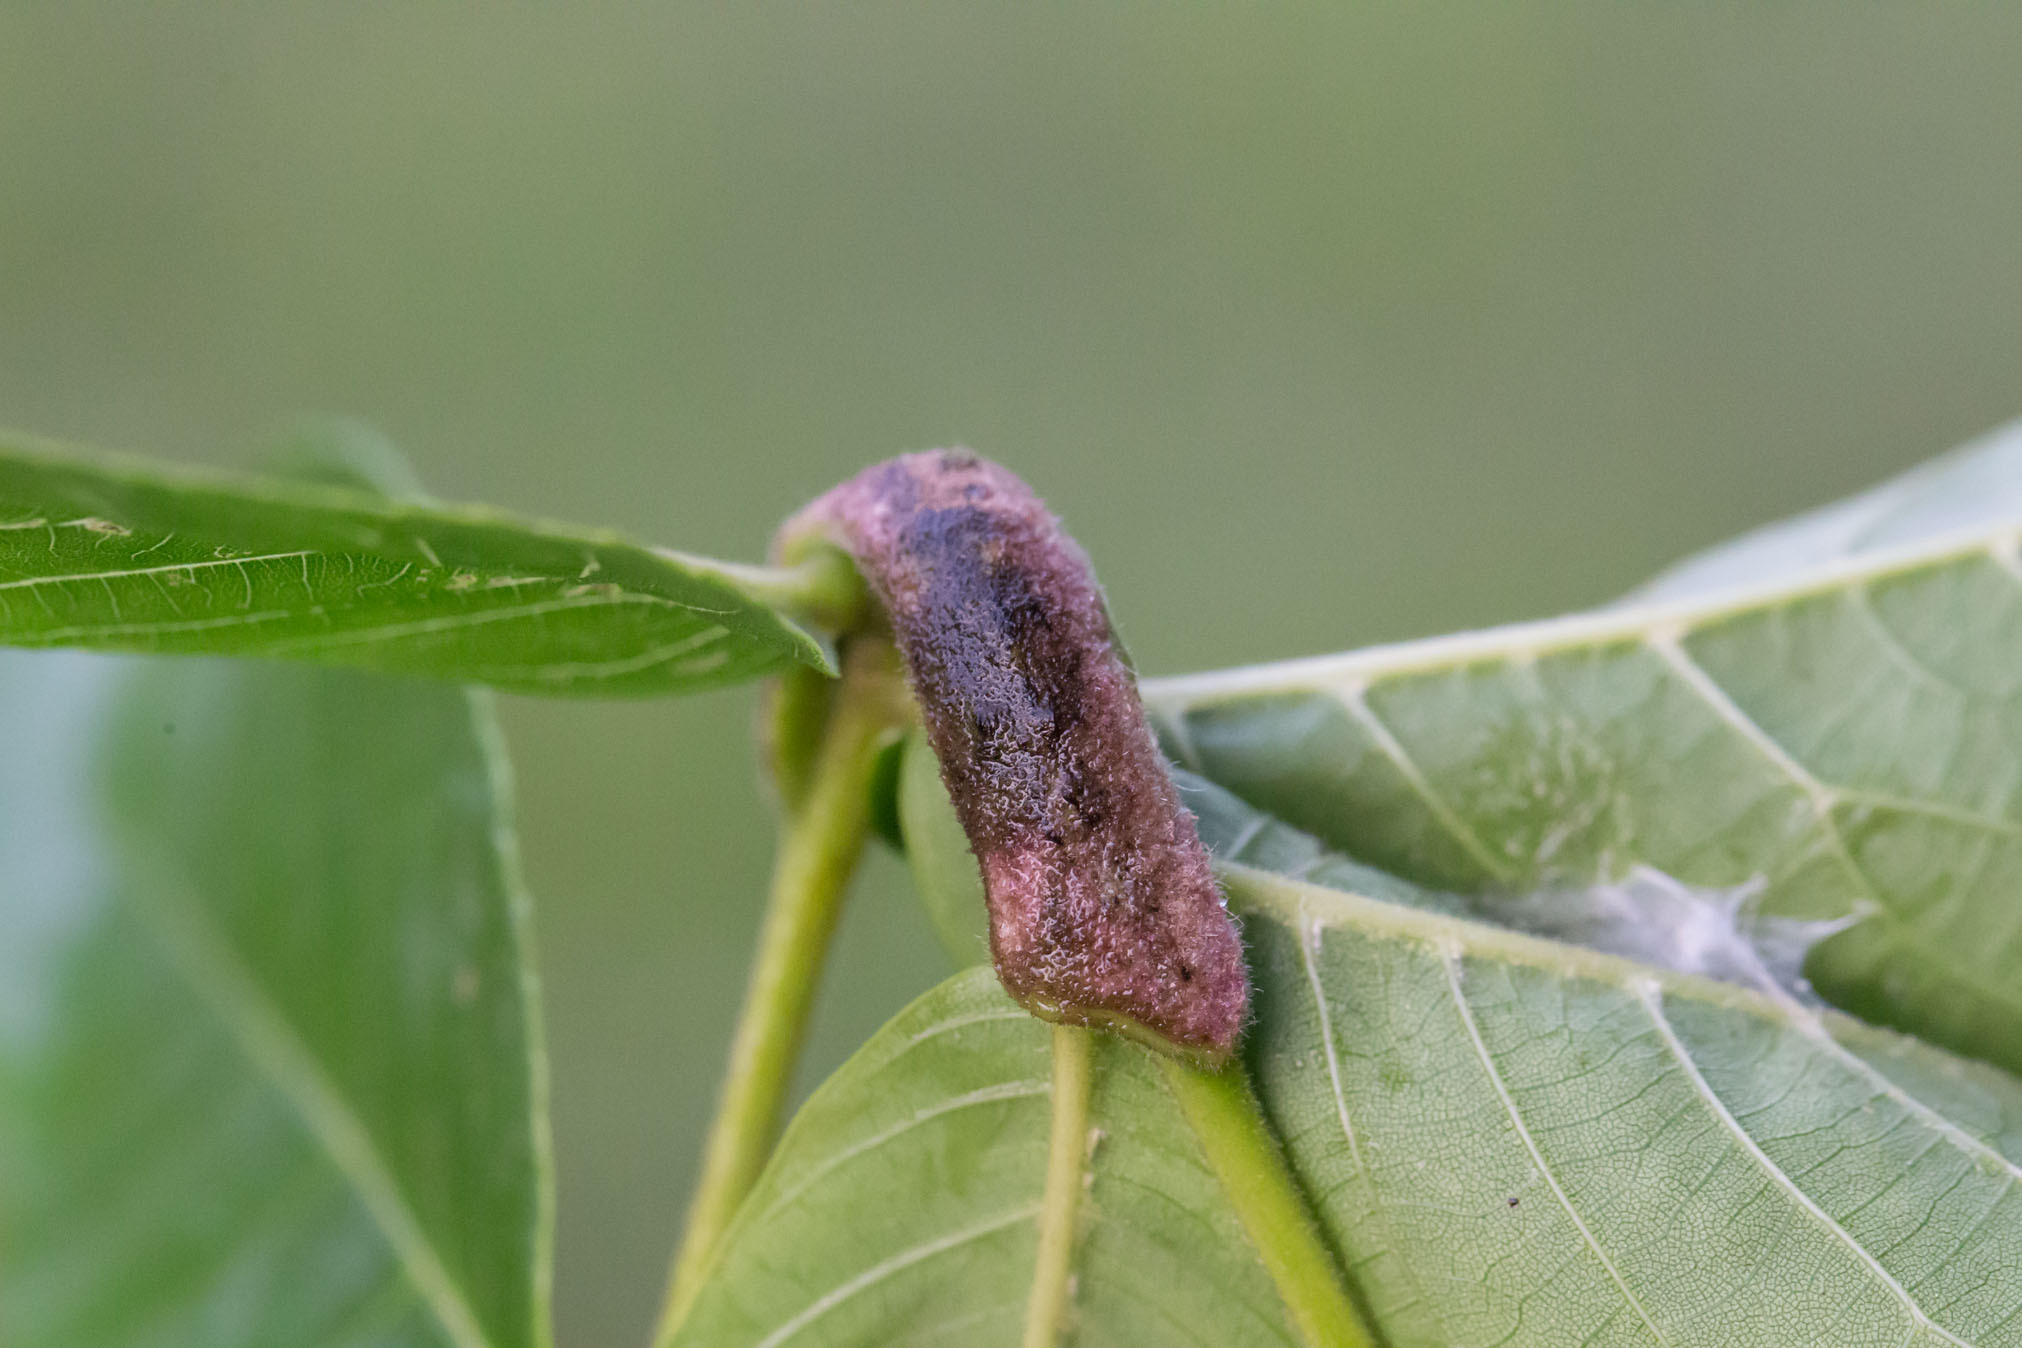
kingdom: Animalia
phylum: Arthropoda
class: Arachnida
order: Trombidiformes
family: Eriophyidae
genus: Aceria
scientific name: Aceria
